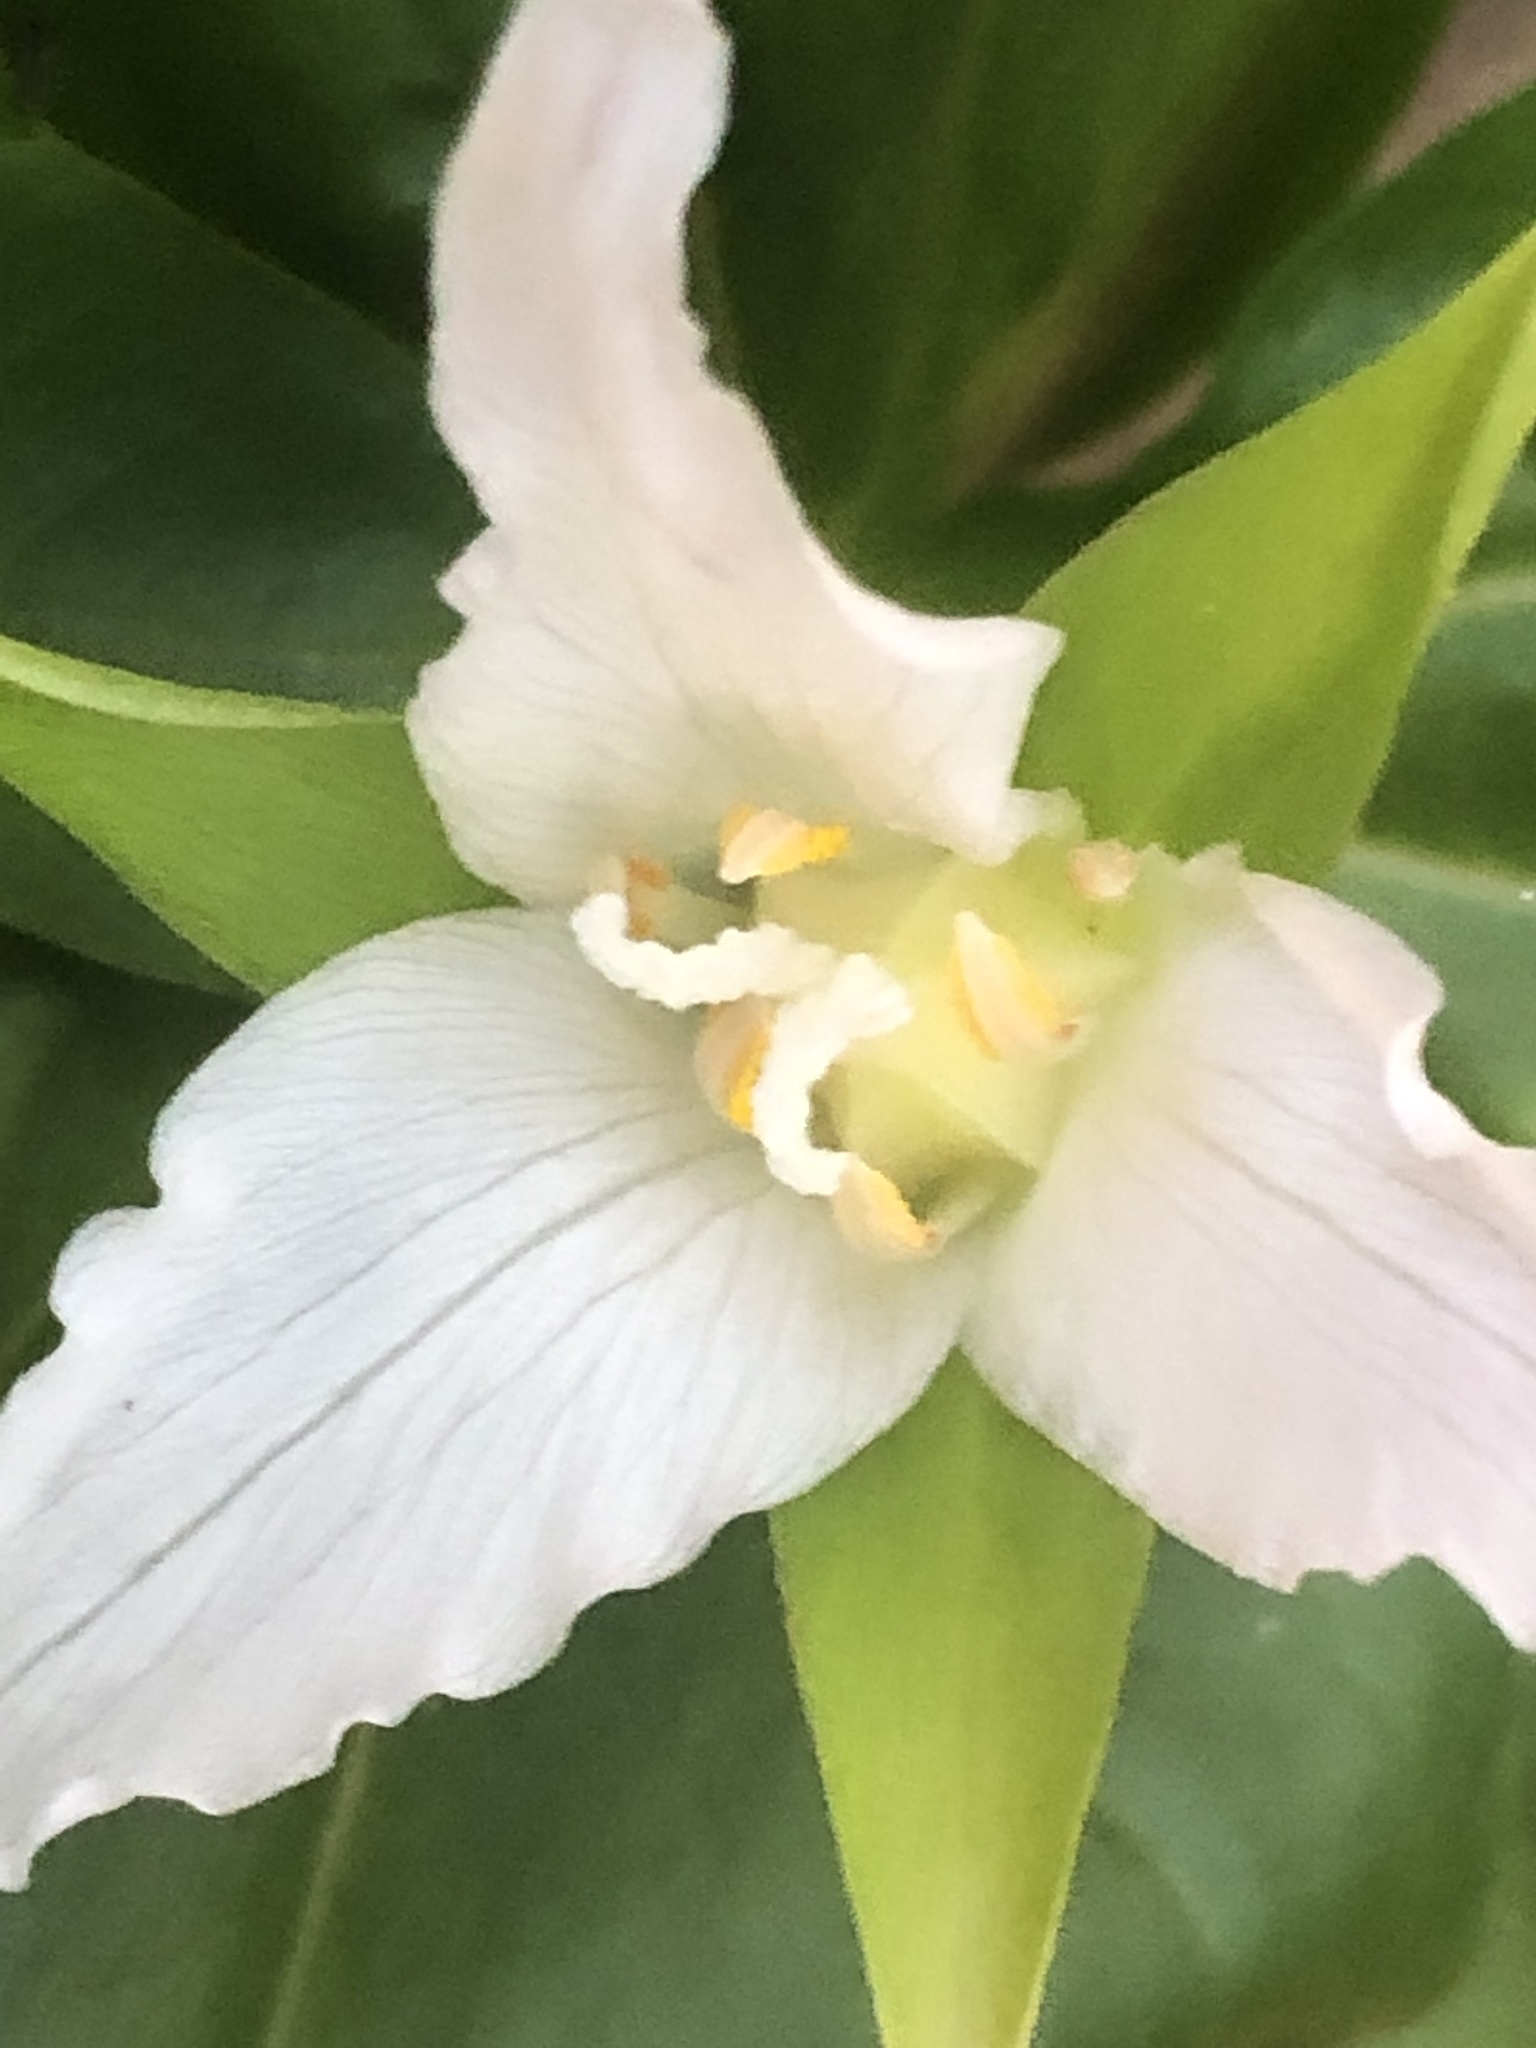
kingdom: Plantae
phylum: Tracheophyta
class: Liliopsida
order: Liliales
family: Melanthiaceae
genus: Trillium
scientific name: Trillium ovatum
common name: Pacific trillium
